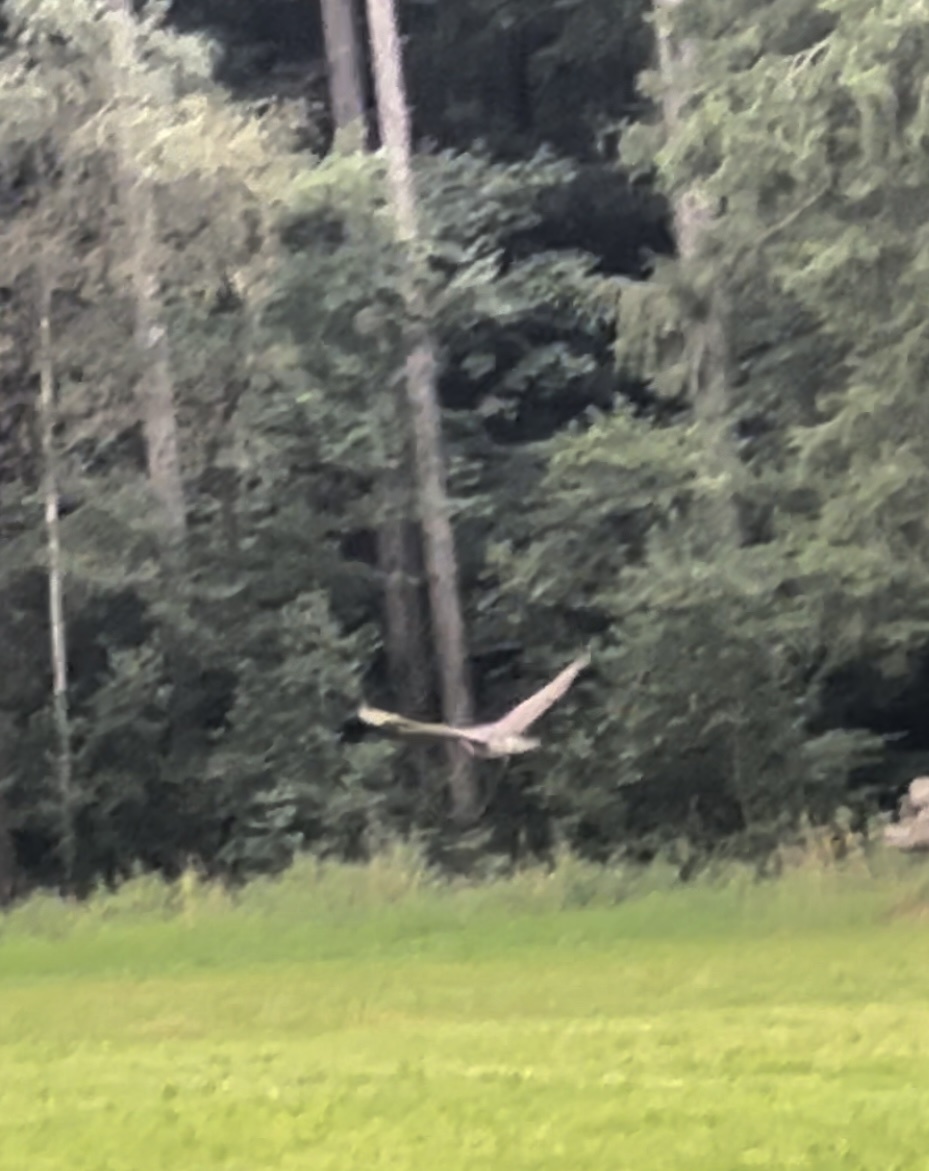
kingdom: Animalia
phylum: Chordata
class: Aves
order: Accipitriformes
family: Accipitridae
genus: Buteo
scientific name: Buteo buteo
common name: Common buzzard
